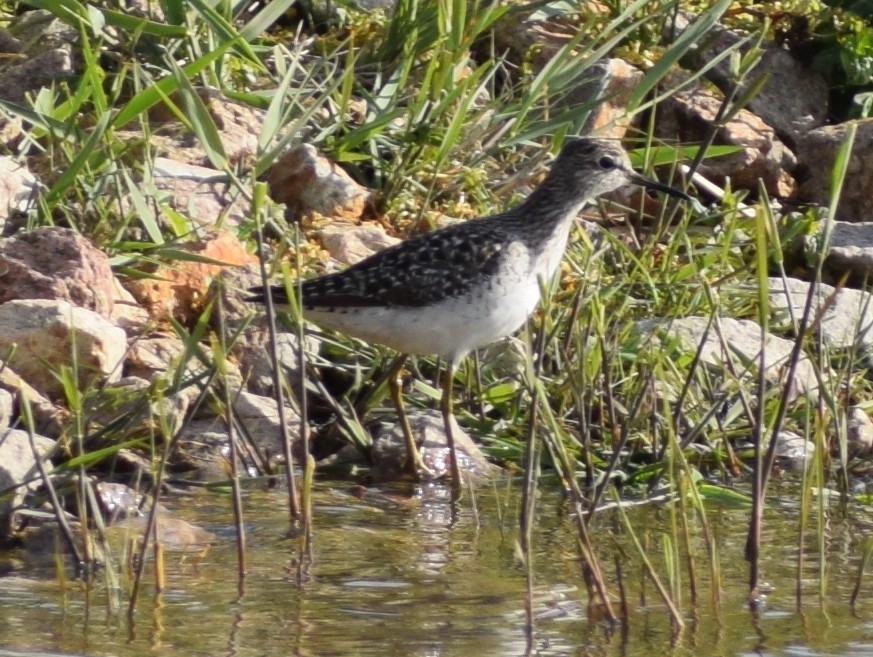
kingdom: Animalia
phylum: Chordata
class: Aves
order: Charadriiformes
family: Scolopacidae
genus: Tringa
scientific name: Tringa glareola
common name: Wood sandpiper
